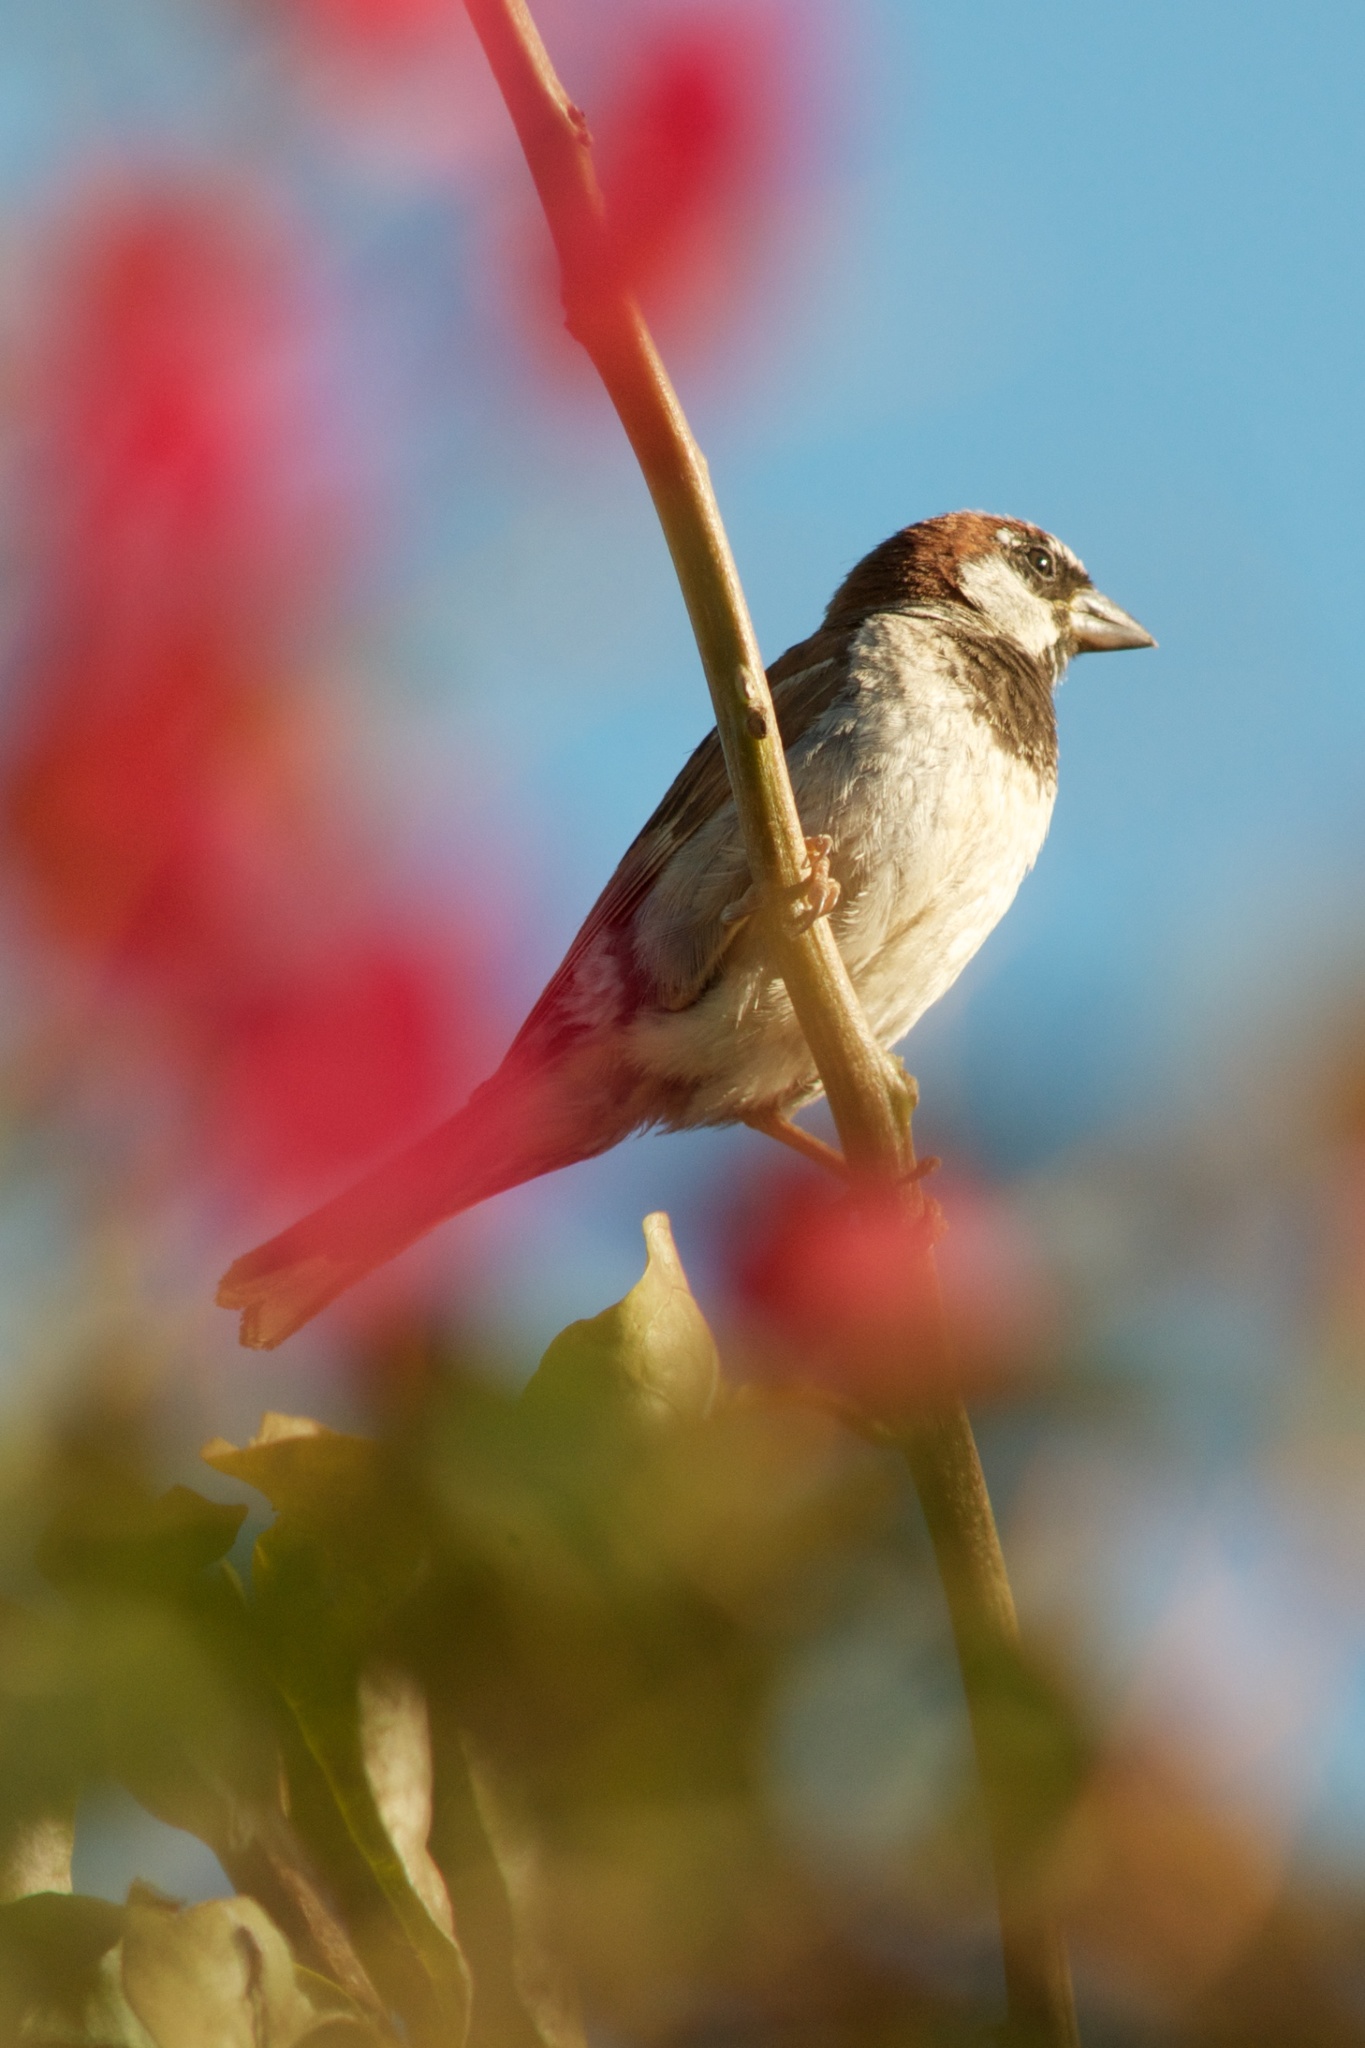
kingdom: Animalia
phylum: Chordata
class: Aves
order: Passeriformes
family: Passeridae
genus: Passer
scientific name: Passer domesticus
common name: House sparrow
